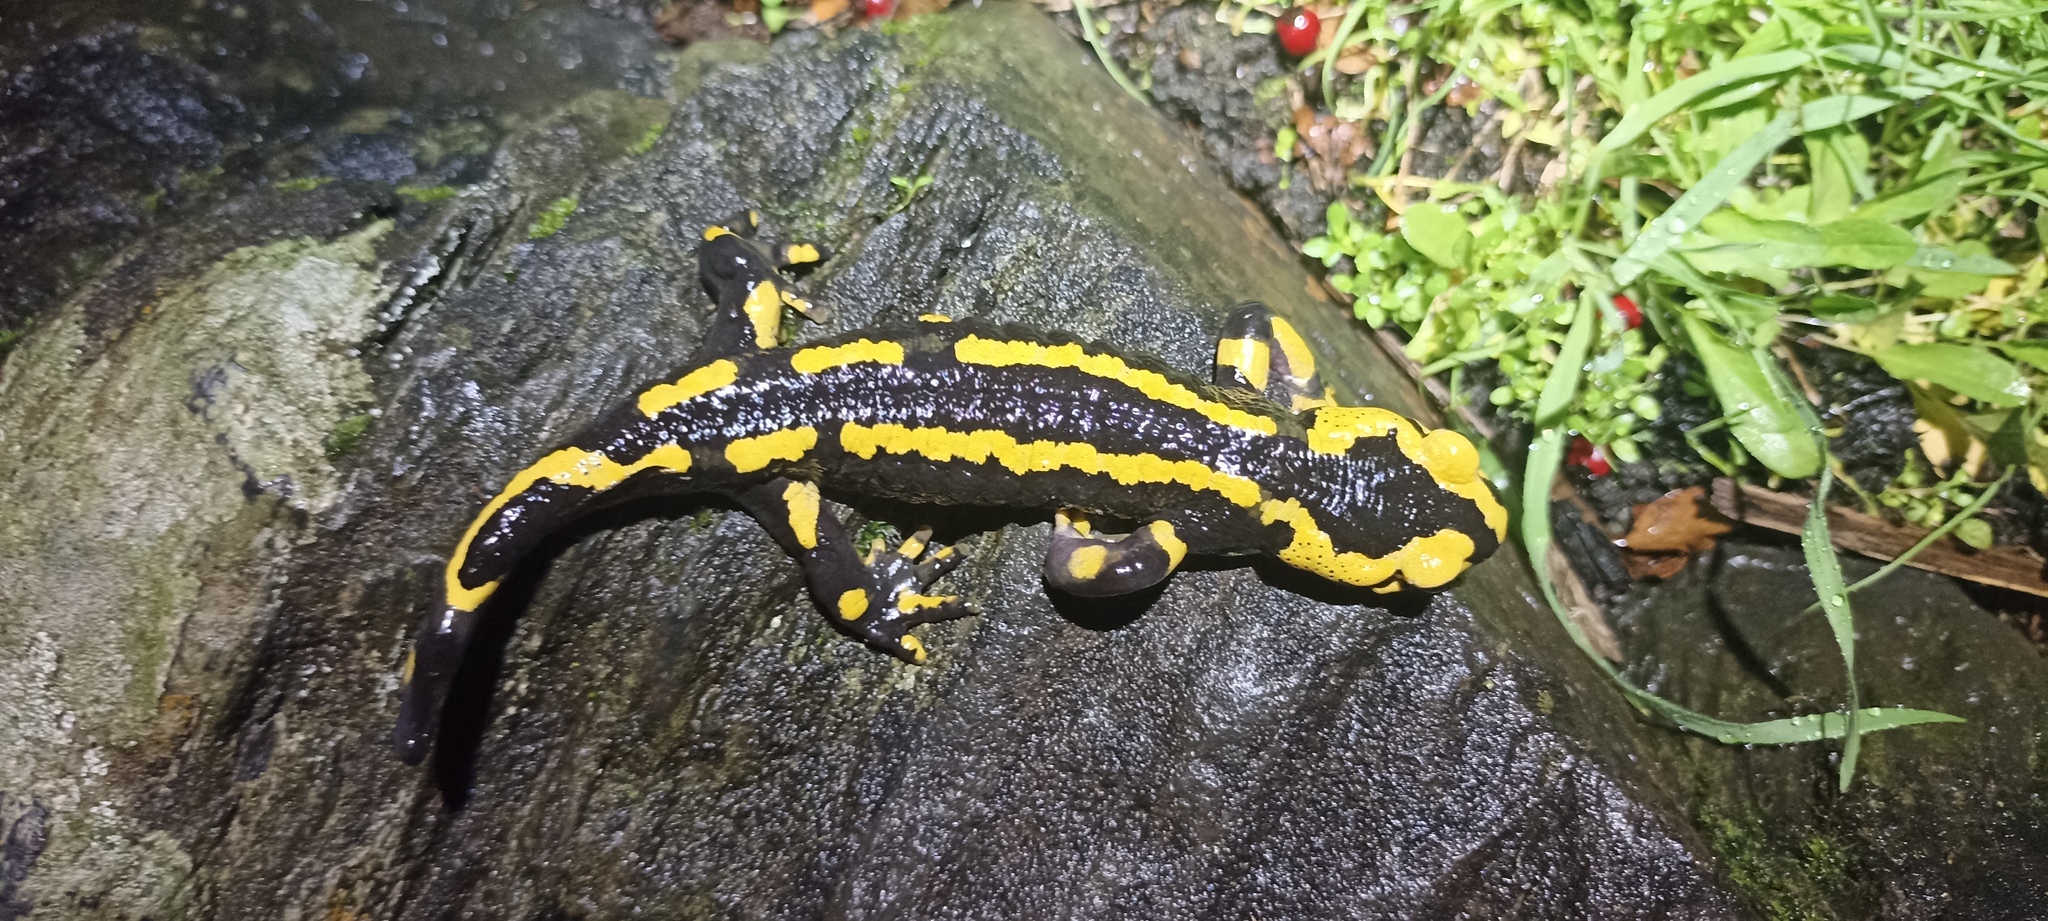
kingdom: Animalia
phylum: Chordata
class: Amphibia
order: Caudata
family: Salamandridae
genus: Salamandra
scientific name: Salamandra salamandra
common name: Fire salamander
